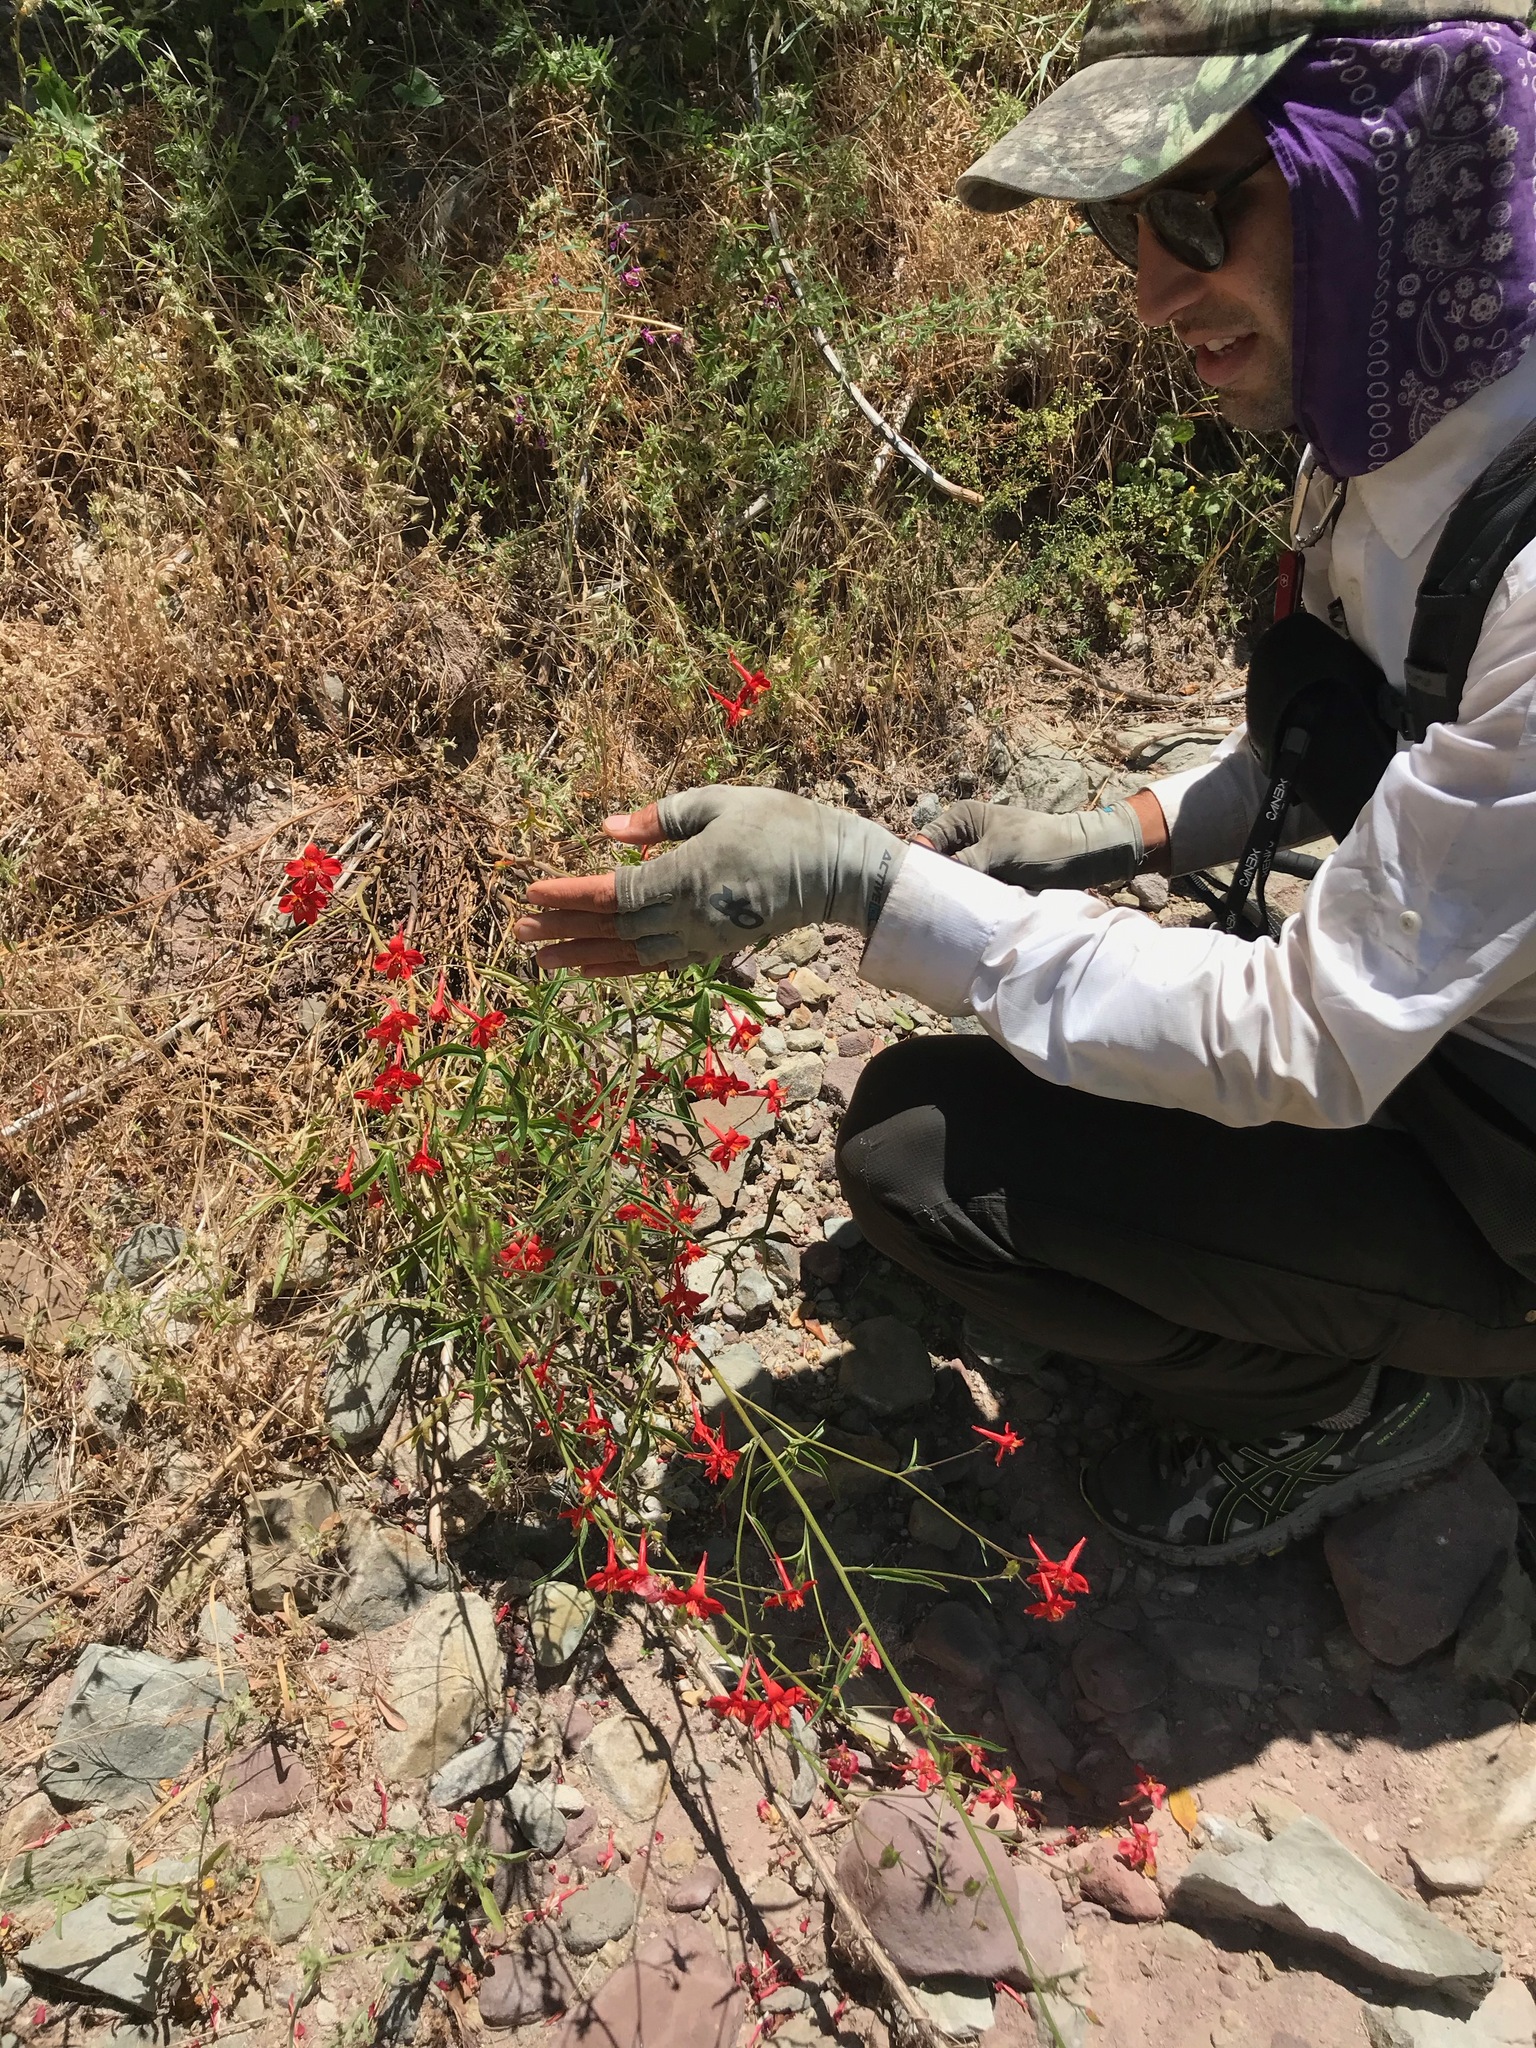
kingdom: Plantae
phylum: Tracheophyta
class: Magnoliopsida
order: Ranunculales
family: Ranunculaceae
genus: Delphinium
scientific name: Delphinium cardinale
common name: Scarlet larkspur
